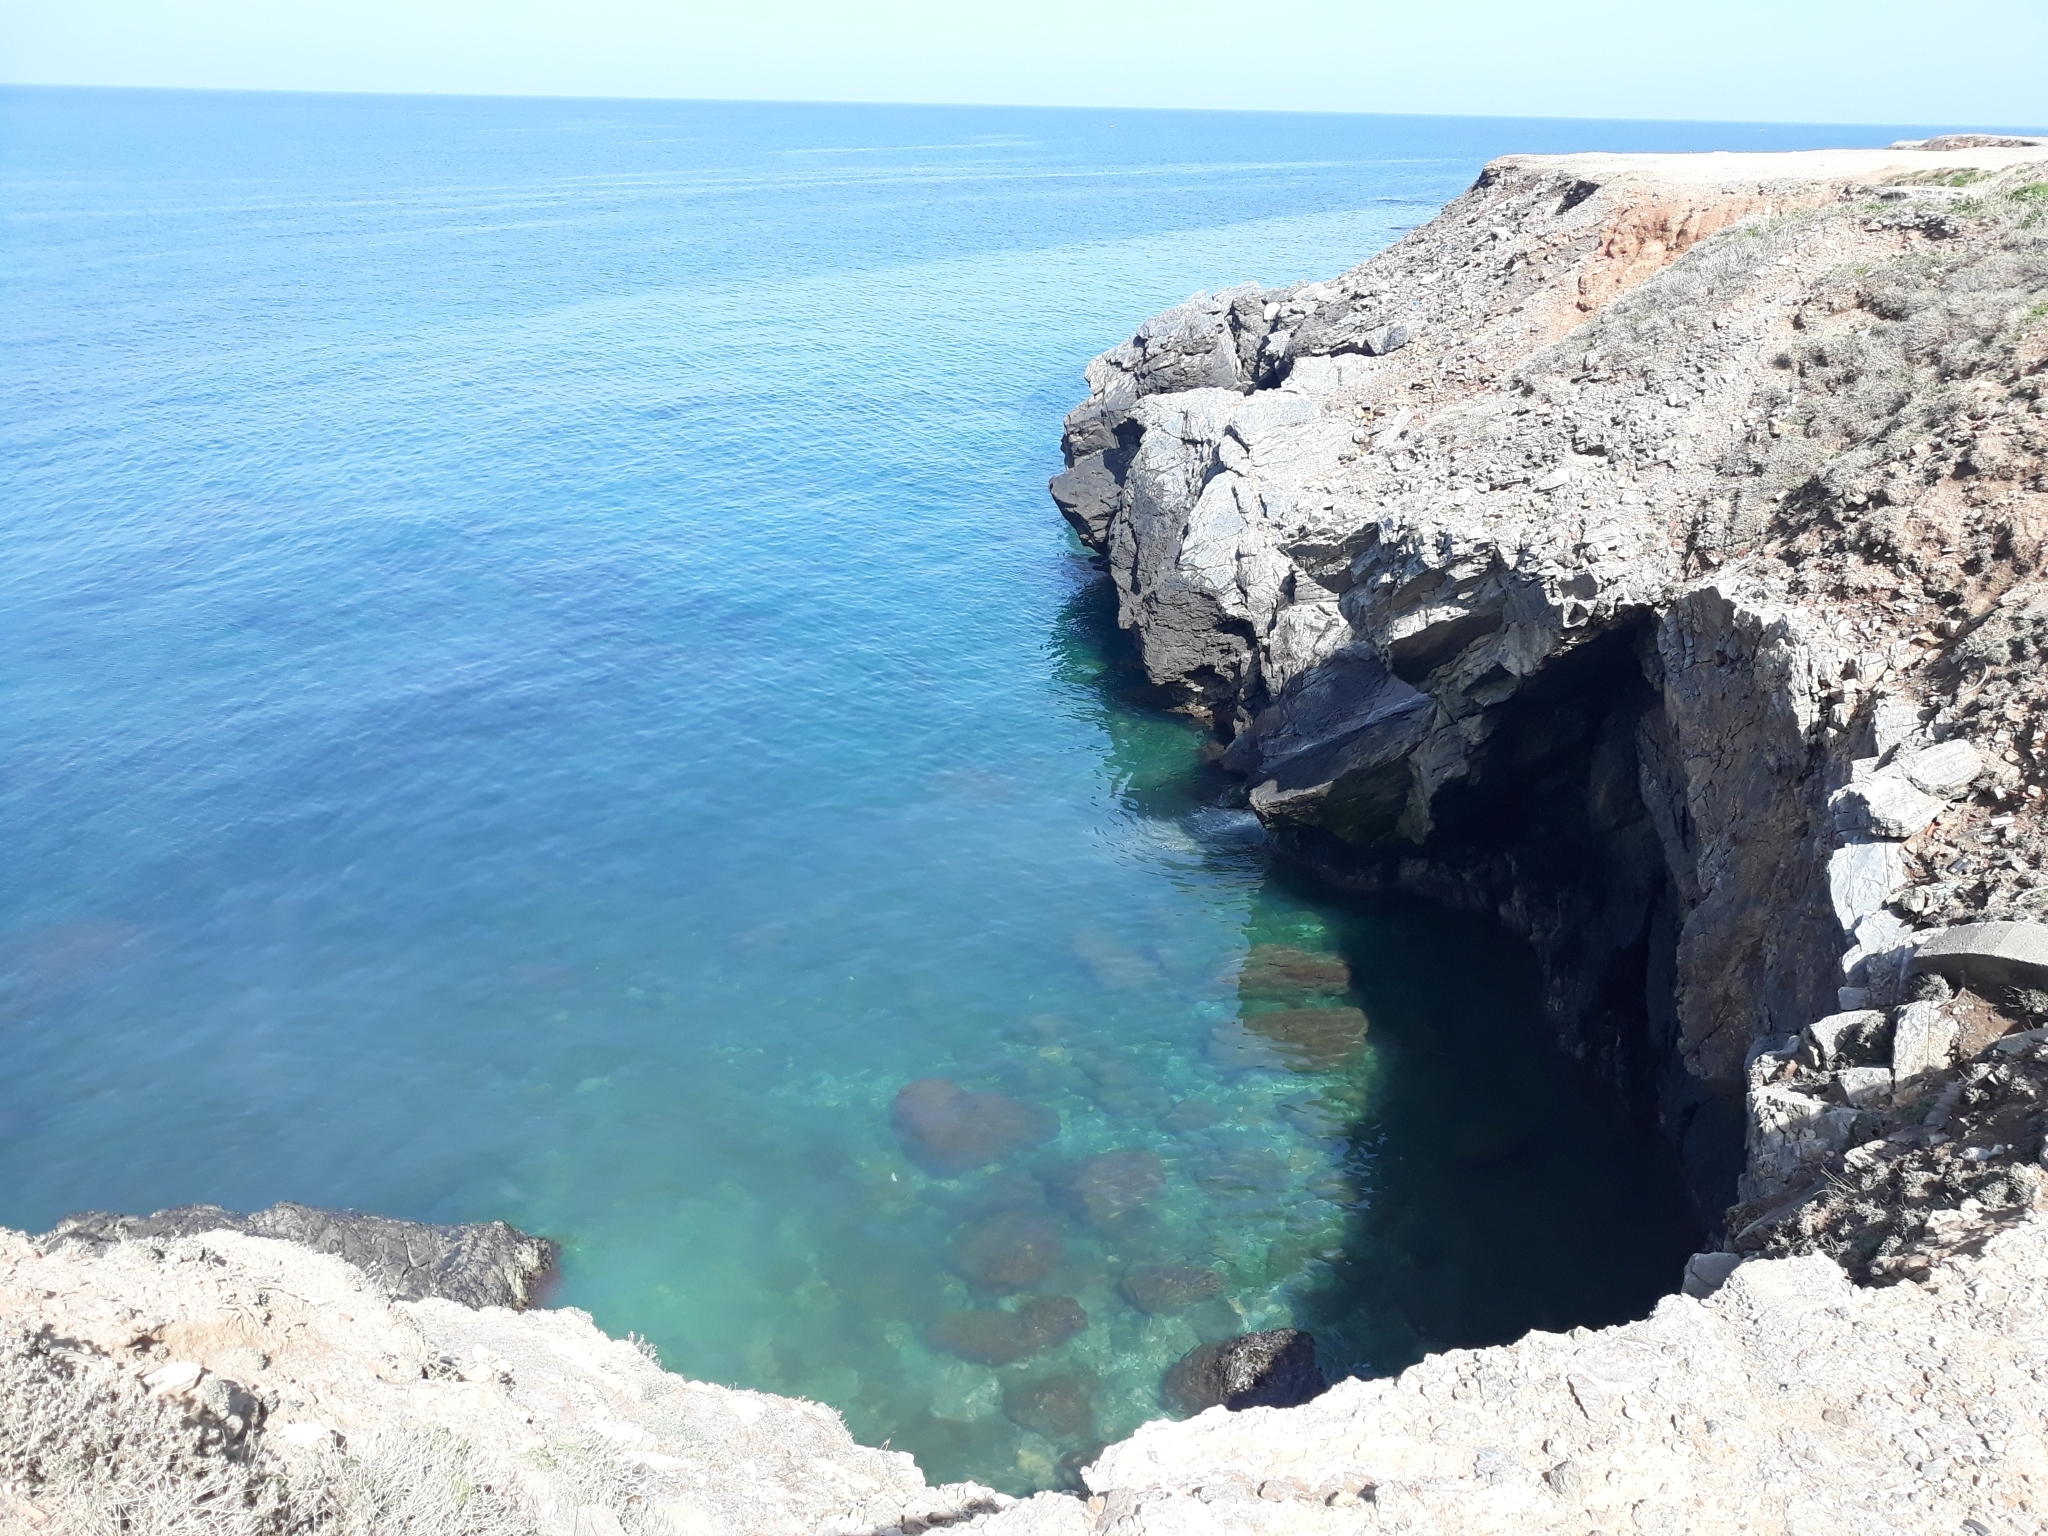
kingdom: Animalia
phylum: Chordata
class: Aves
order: Charadriiformes
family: Laridae
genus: Chroicocephalus
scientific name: Chroicocephalus ridibundus
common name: Black-headed gull
